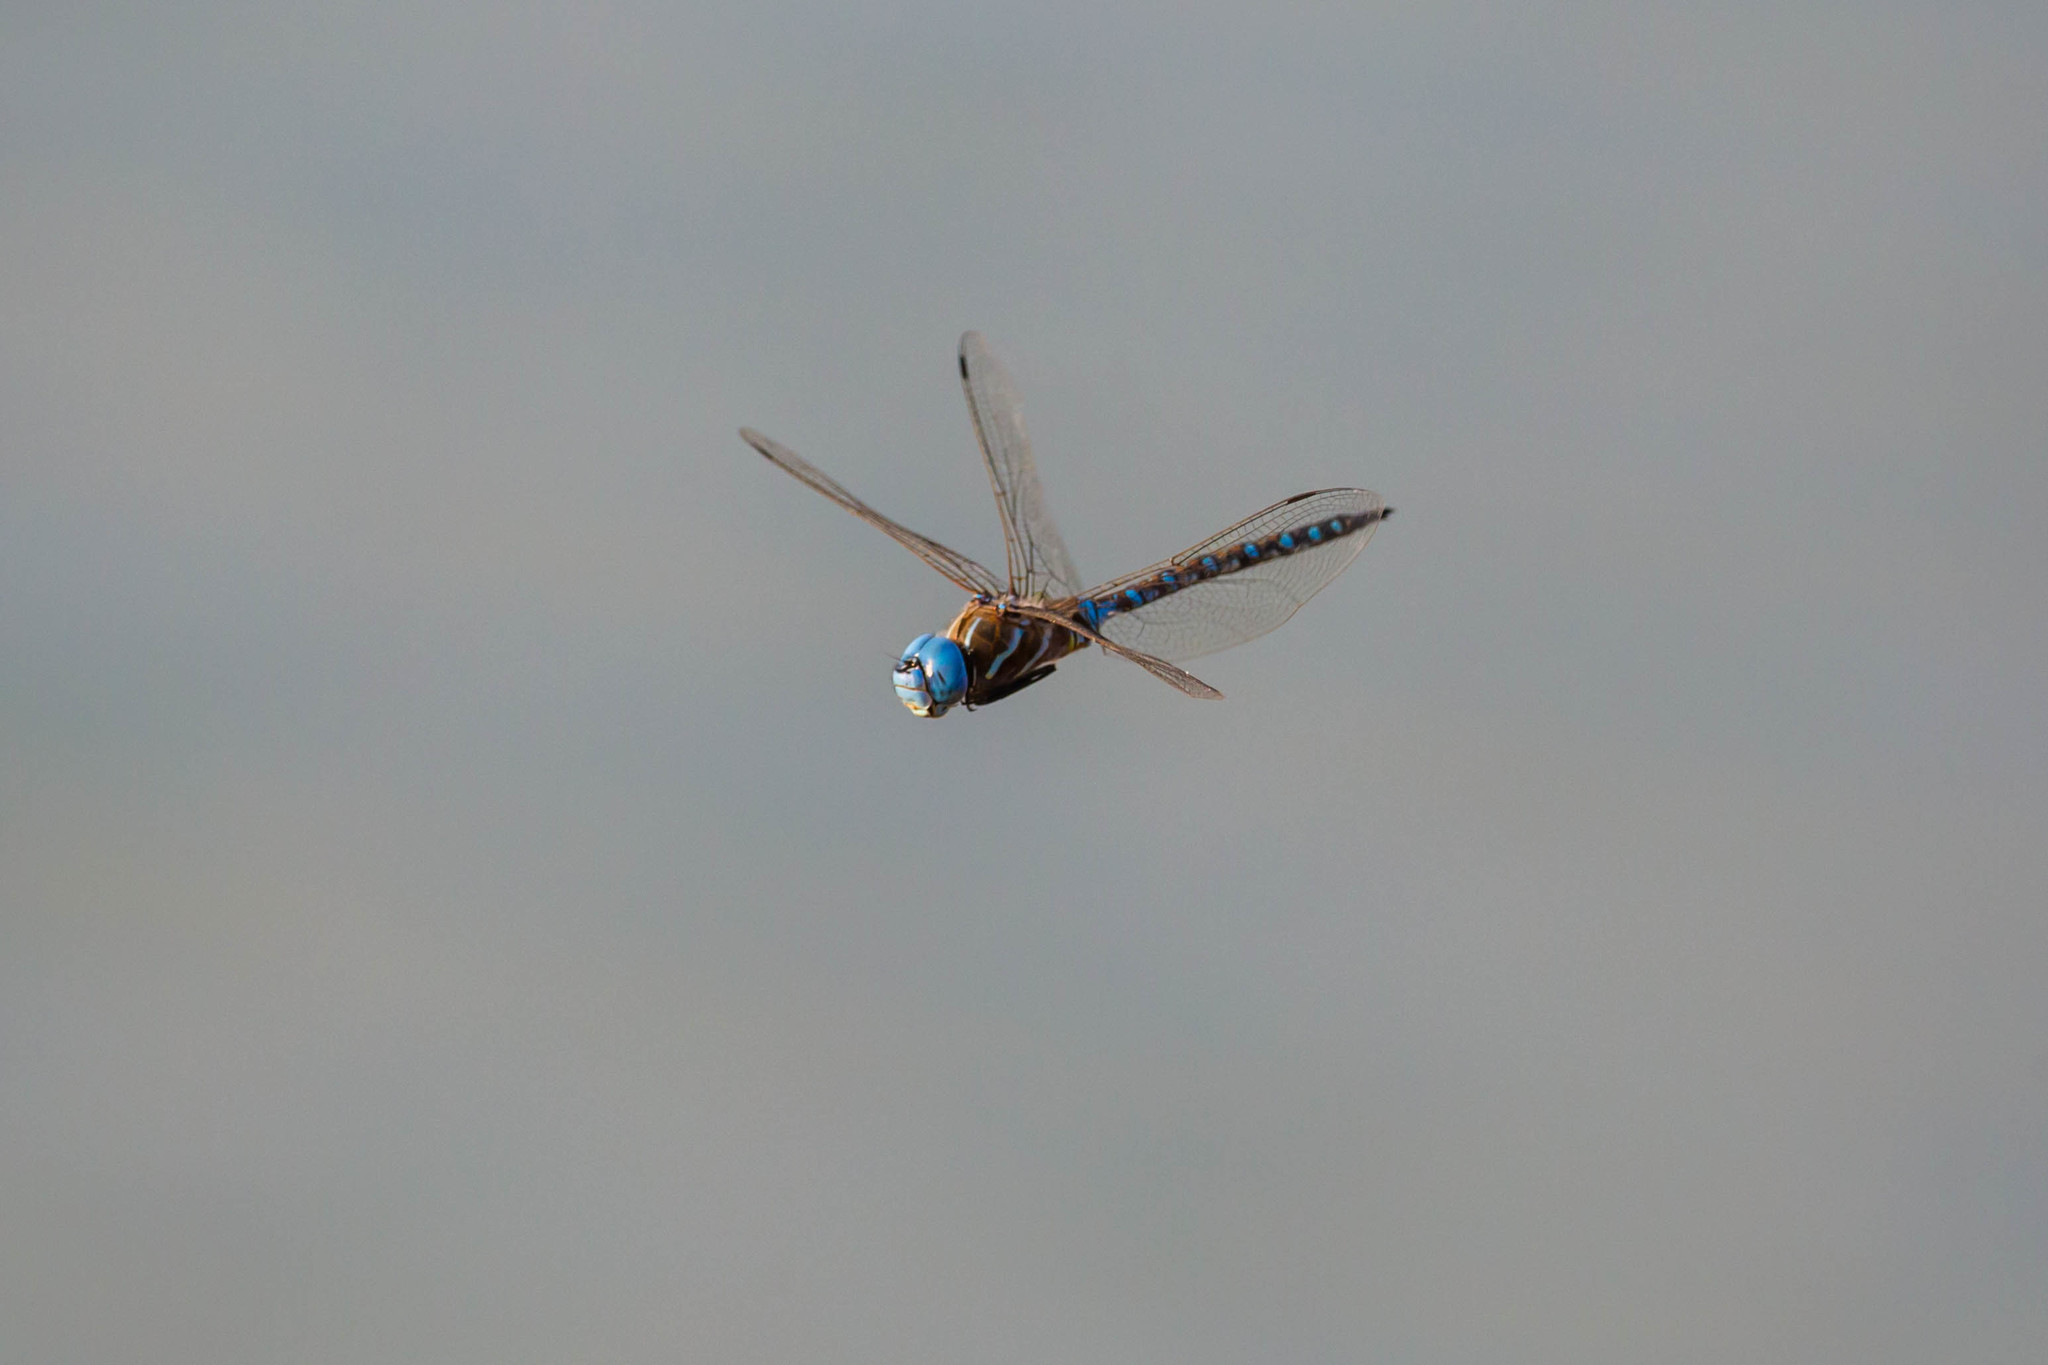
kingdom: Animalia
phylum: Arthropoda
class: Insecta
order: Odonata
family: Aeshnidae
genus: Rhionaeschna
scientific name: Rhionaeschna multicolor
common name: Blue-eyed darner
